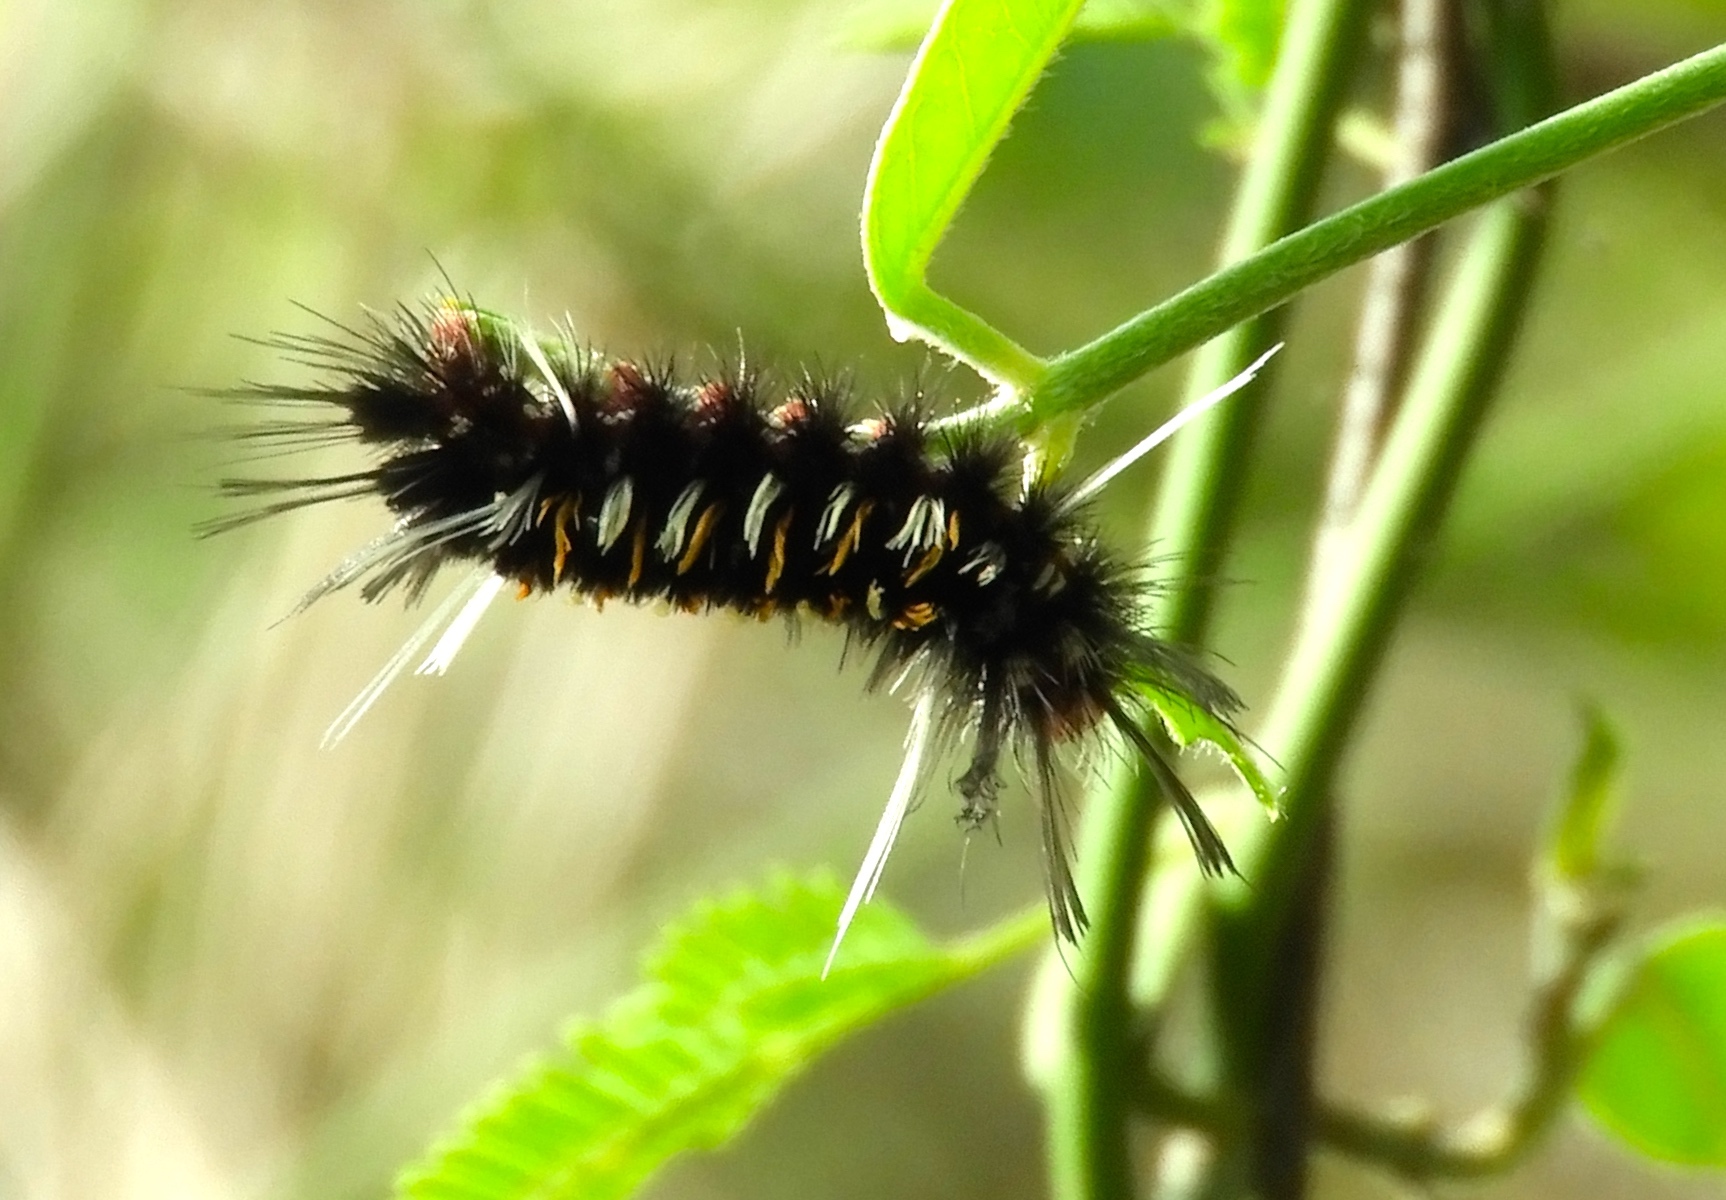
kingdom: Animalia
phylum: Arthropoda
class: Insecta
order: Lepidoptera
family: Erebidae
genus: Euchaetes
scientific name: Euchaetes
